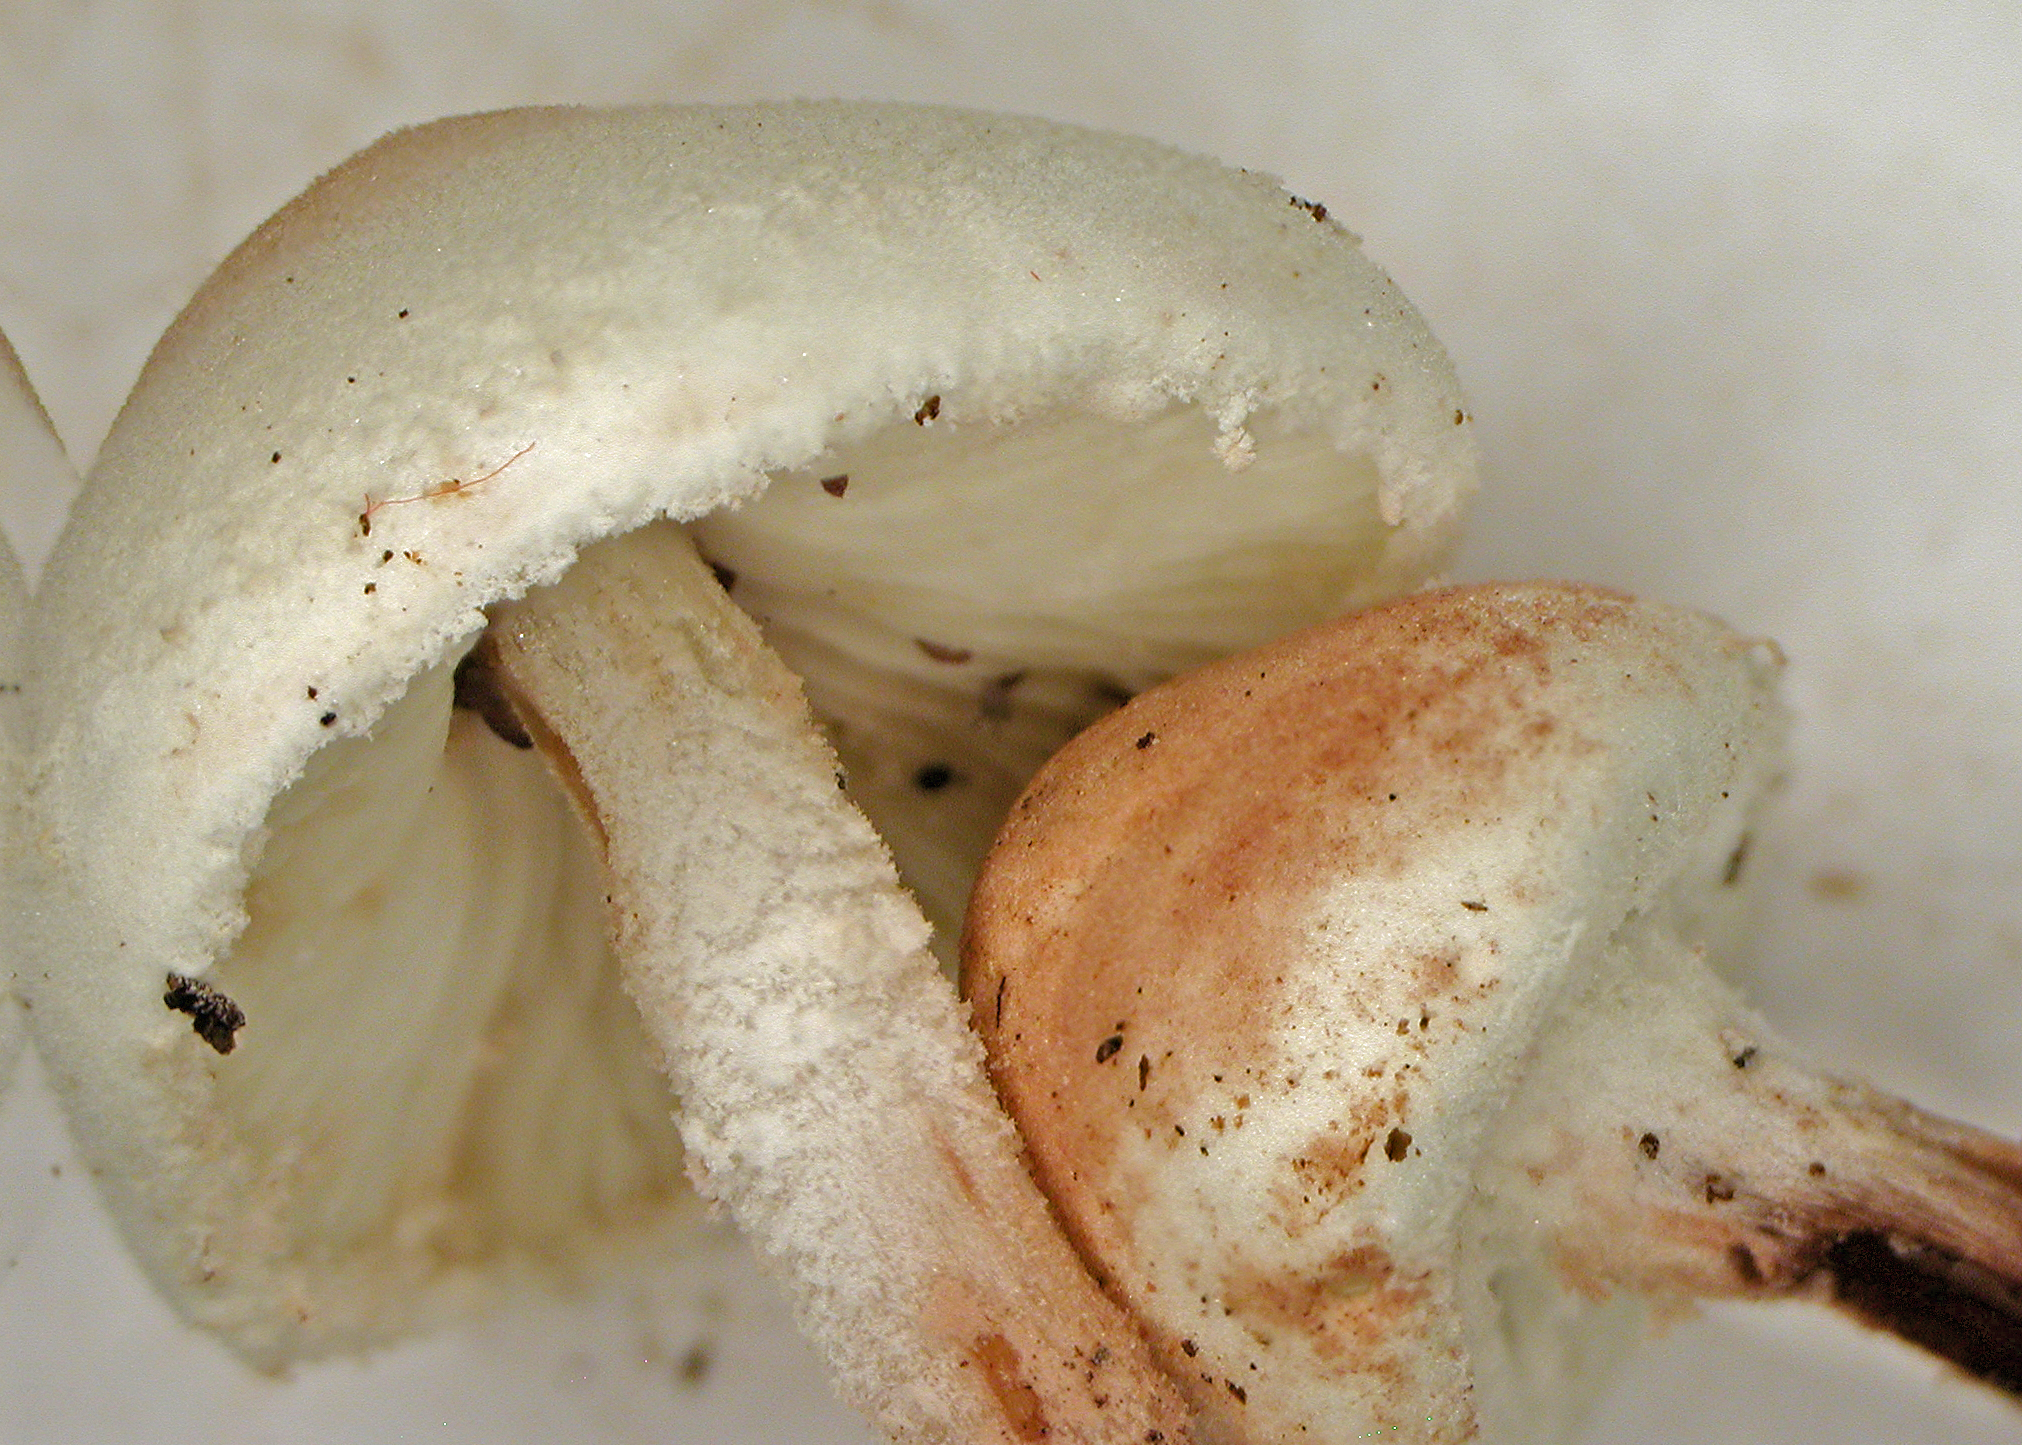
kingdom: Fungi
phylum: Basidiomycota
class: Agaricomycetes
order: Agaricales
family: Agaricaceae
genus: Cystolepiota
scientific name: Cystolepiota
